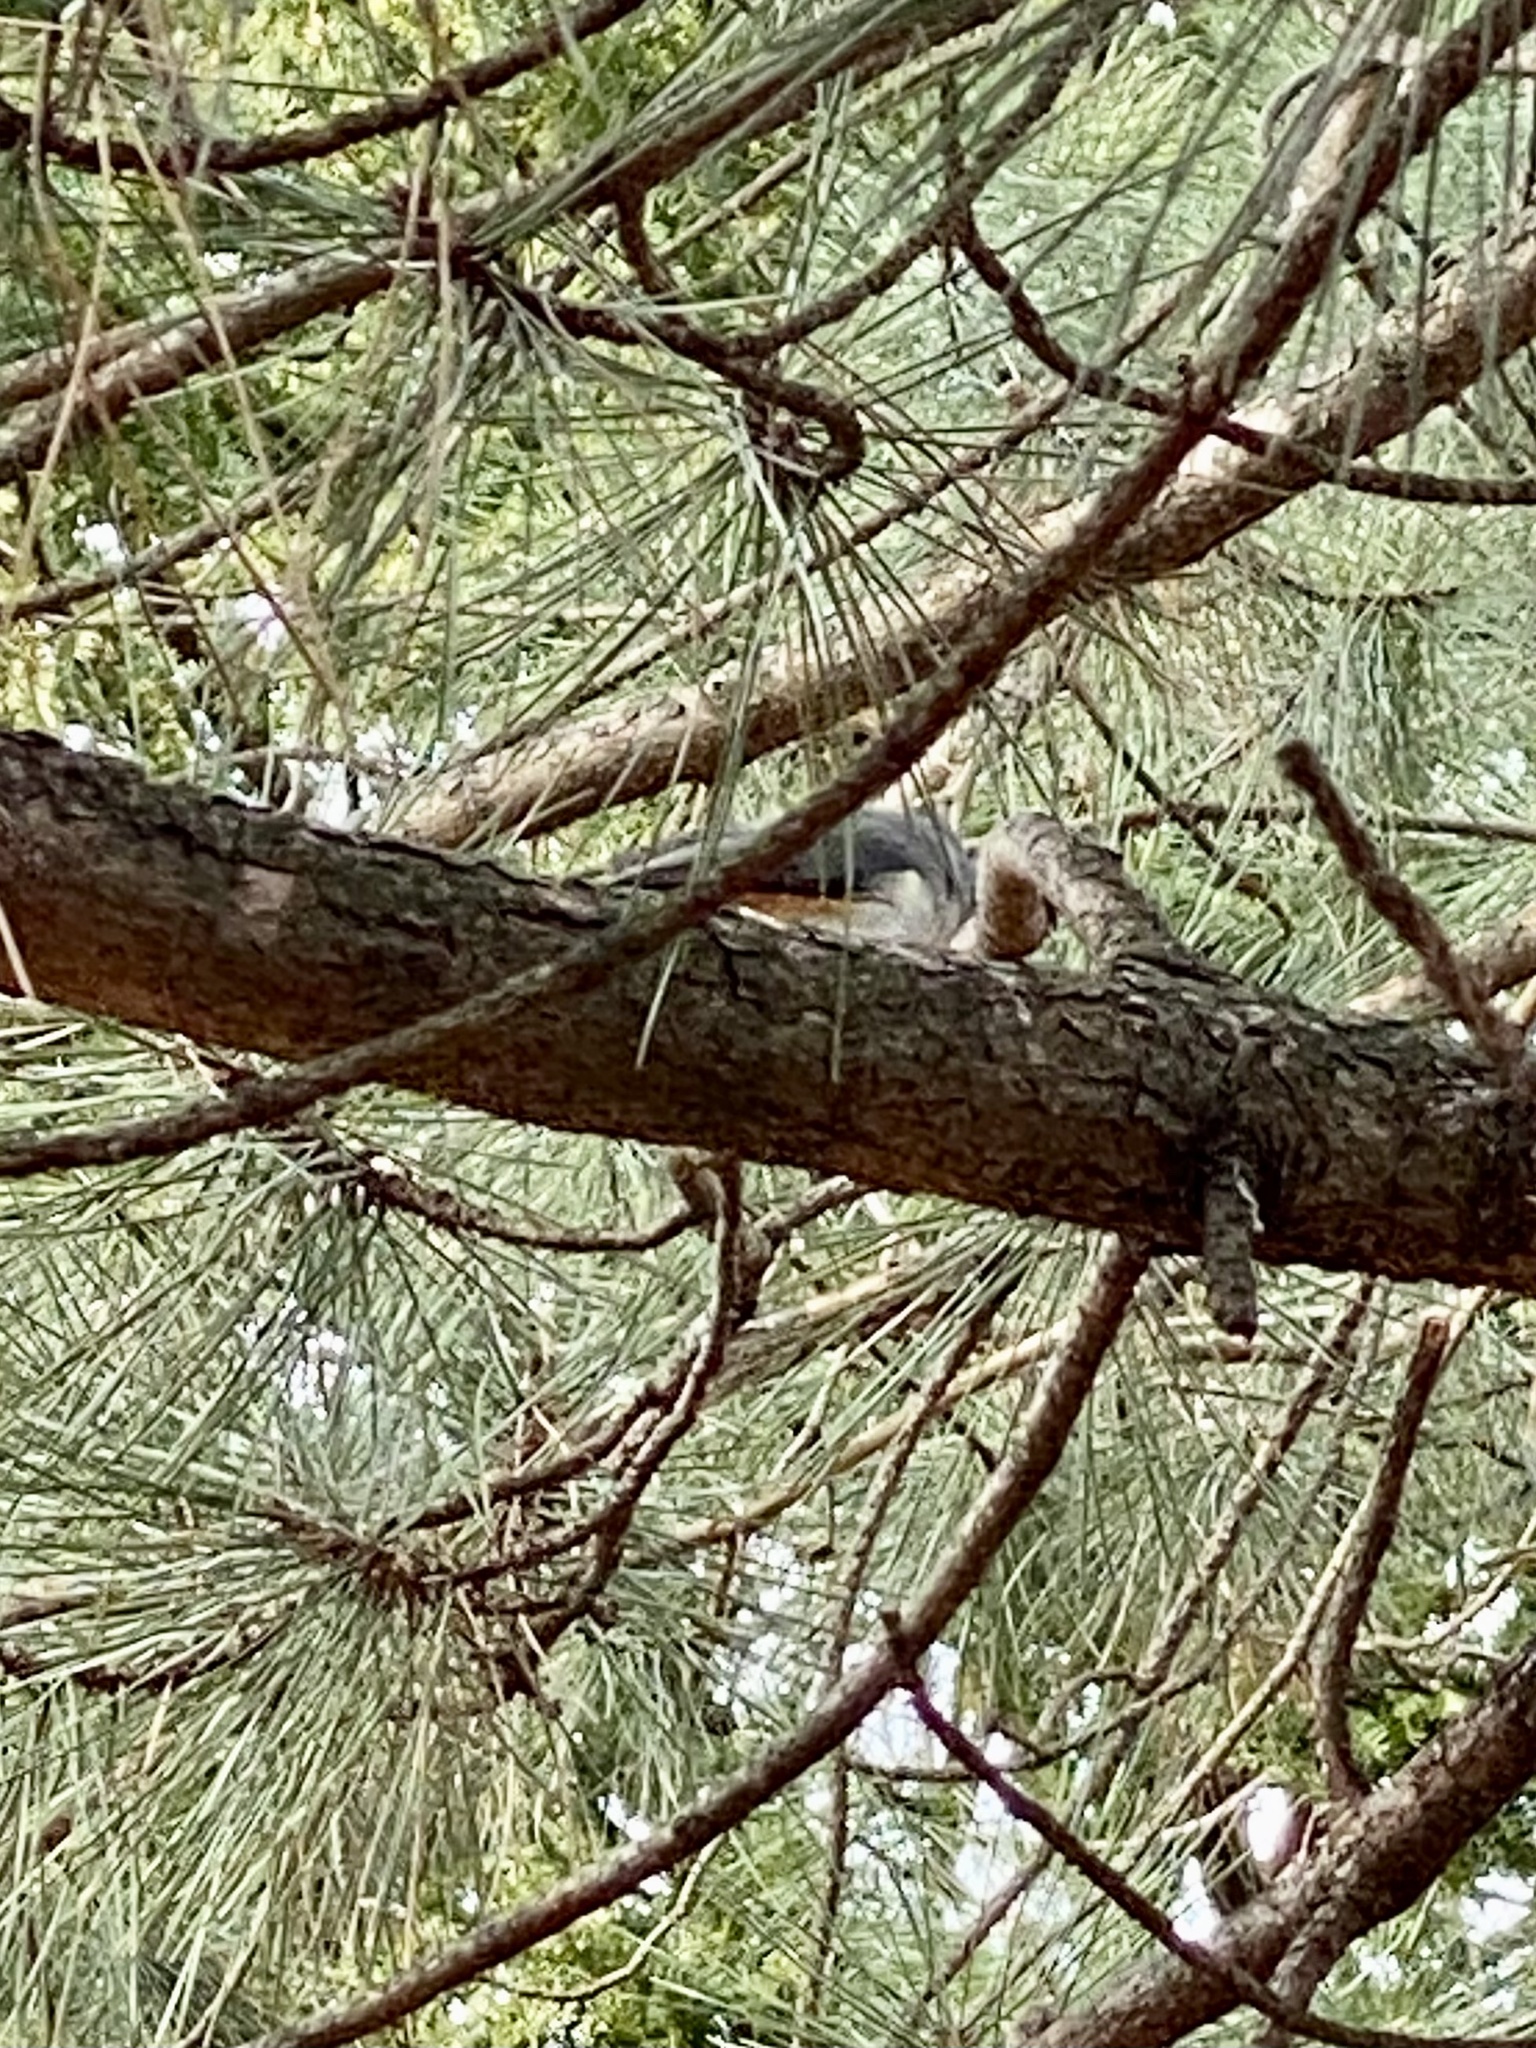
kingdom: Animalia
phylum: Chordata
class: Aves
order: Passeriformes
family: Paridae
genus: Baeolophus
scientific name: Baeolophus bicolor
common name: Tufted titmouse
